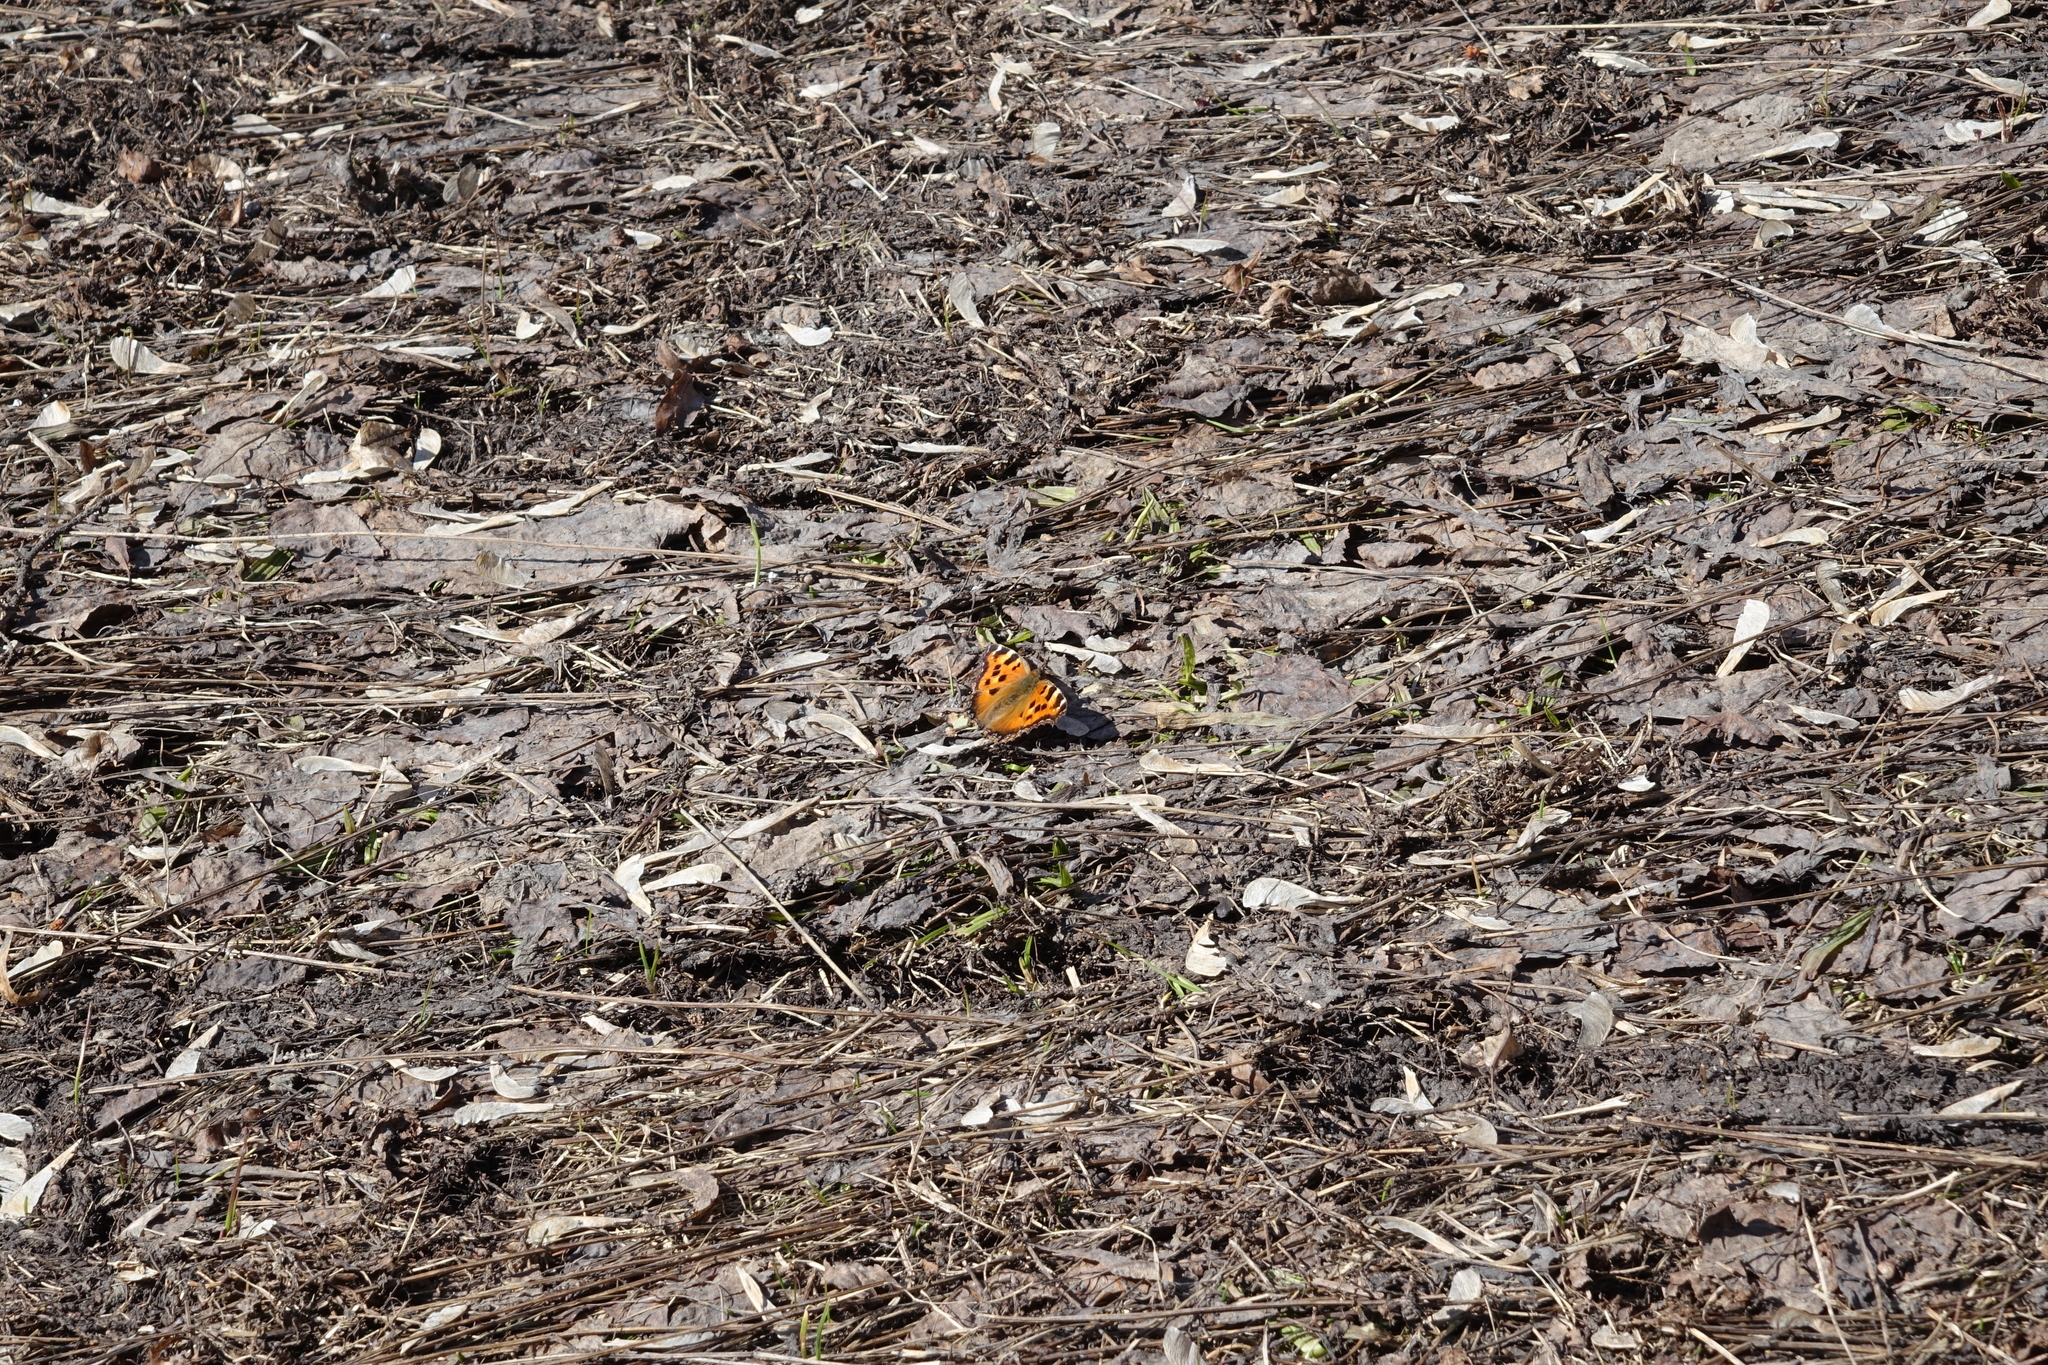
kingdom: Animalia
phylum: Arthropoda
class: Insecta
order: Lepidoptera
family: Nymphalidae
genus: Nymphalis
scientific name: Nymphalis xanthomelas
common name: Scarce tortoiseshell
